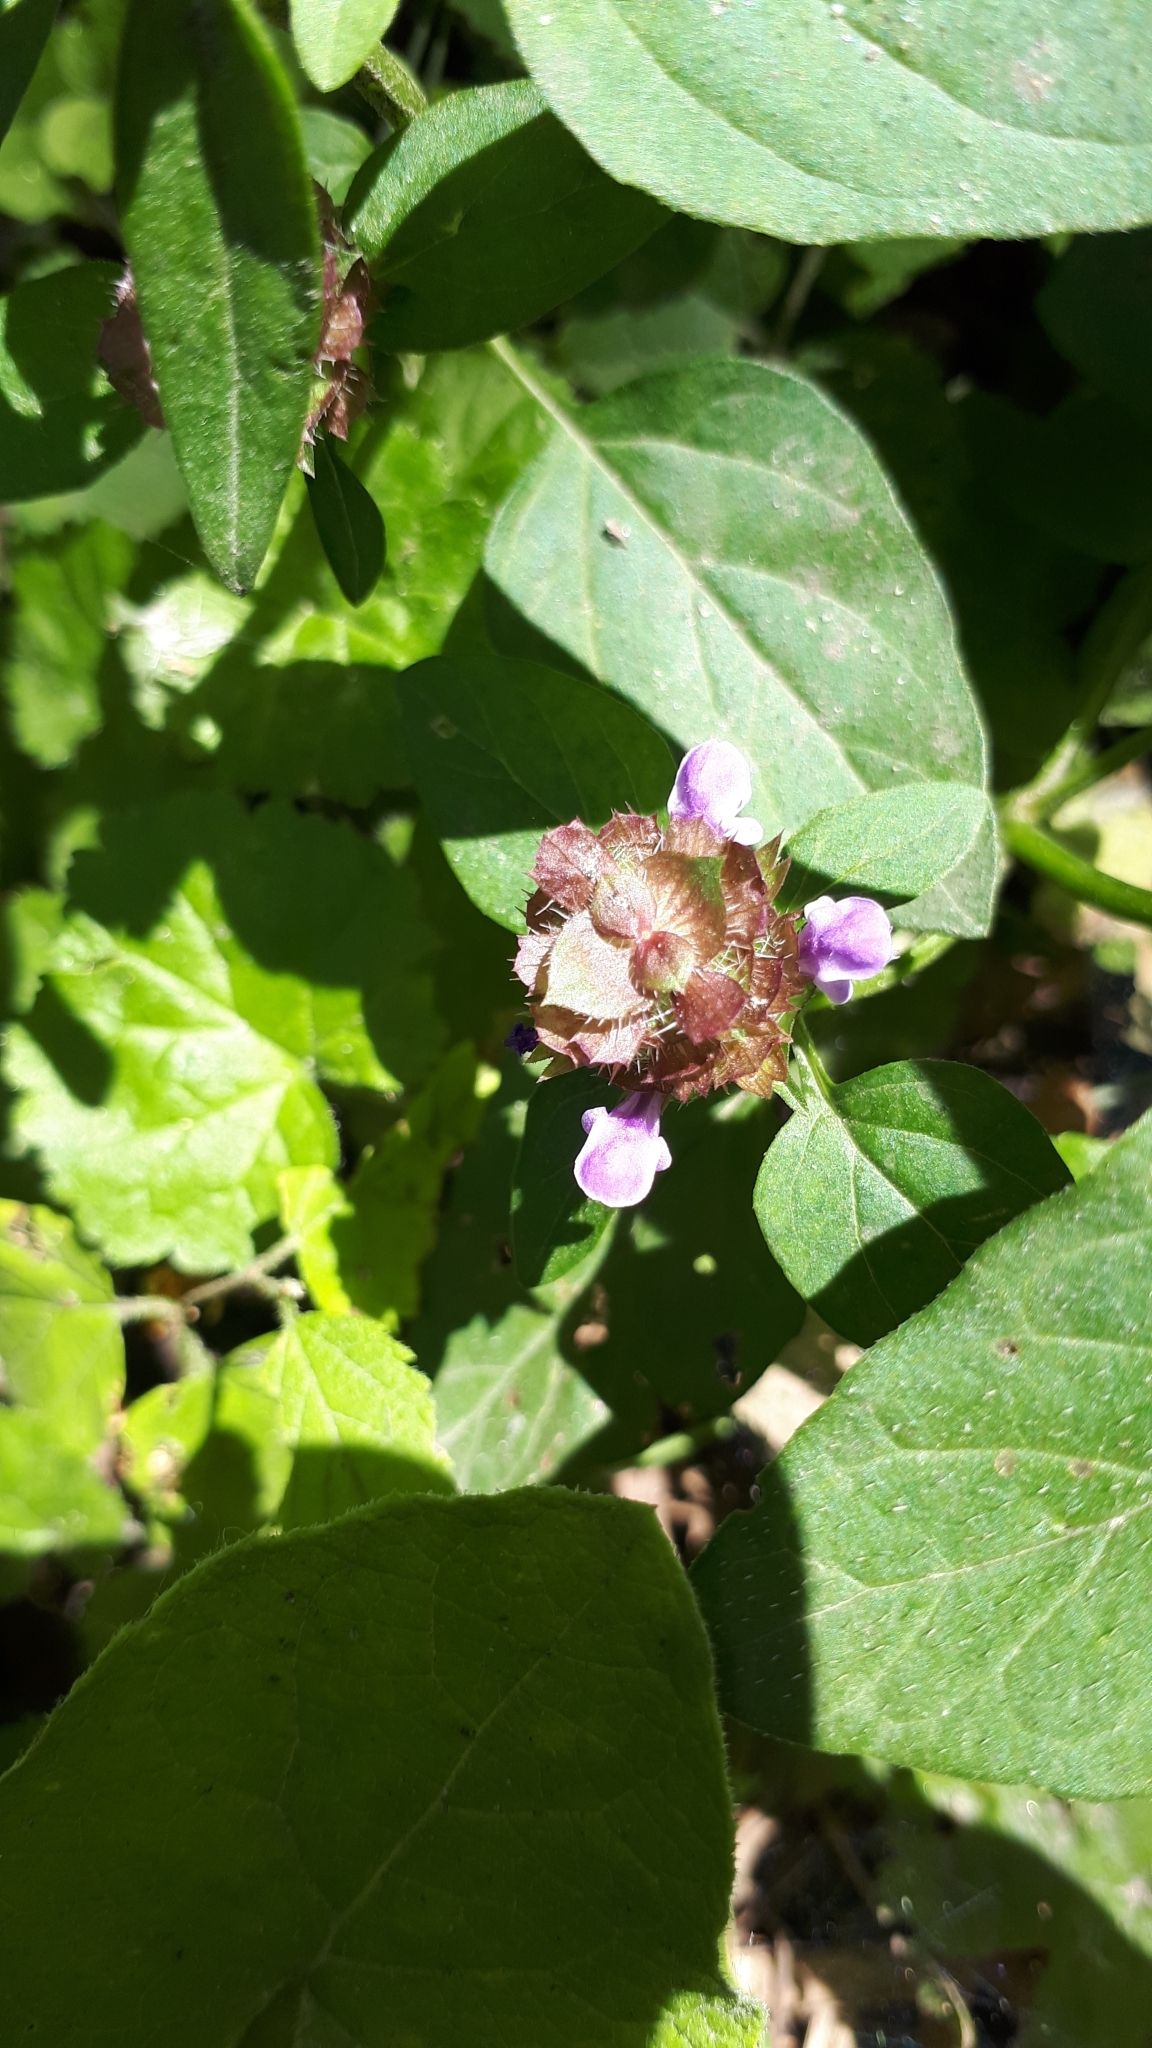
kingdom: Plantae
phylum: Tracheophyta
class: Magnoliopsida
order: Lamiales
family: Lamiaceae
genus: Prunella
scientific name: Prunella vulgaris
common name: Heal-all
